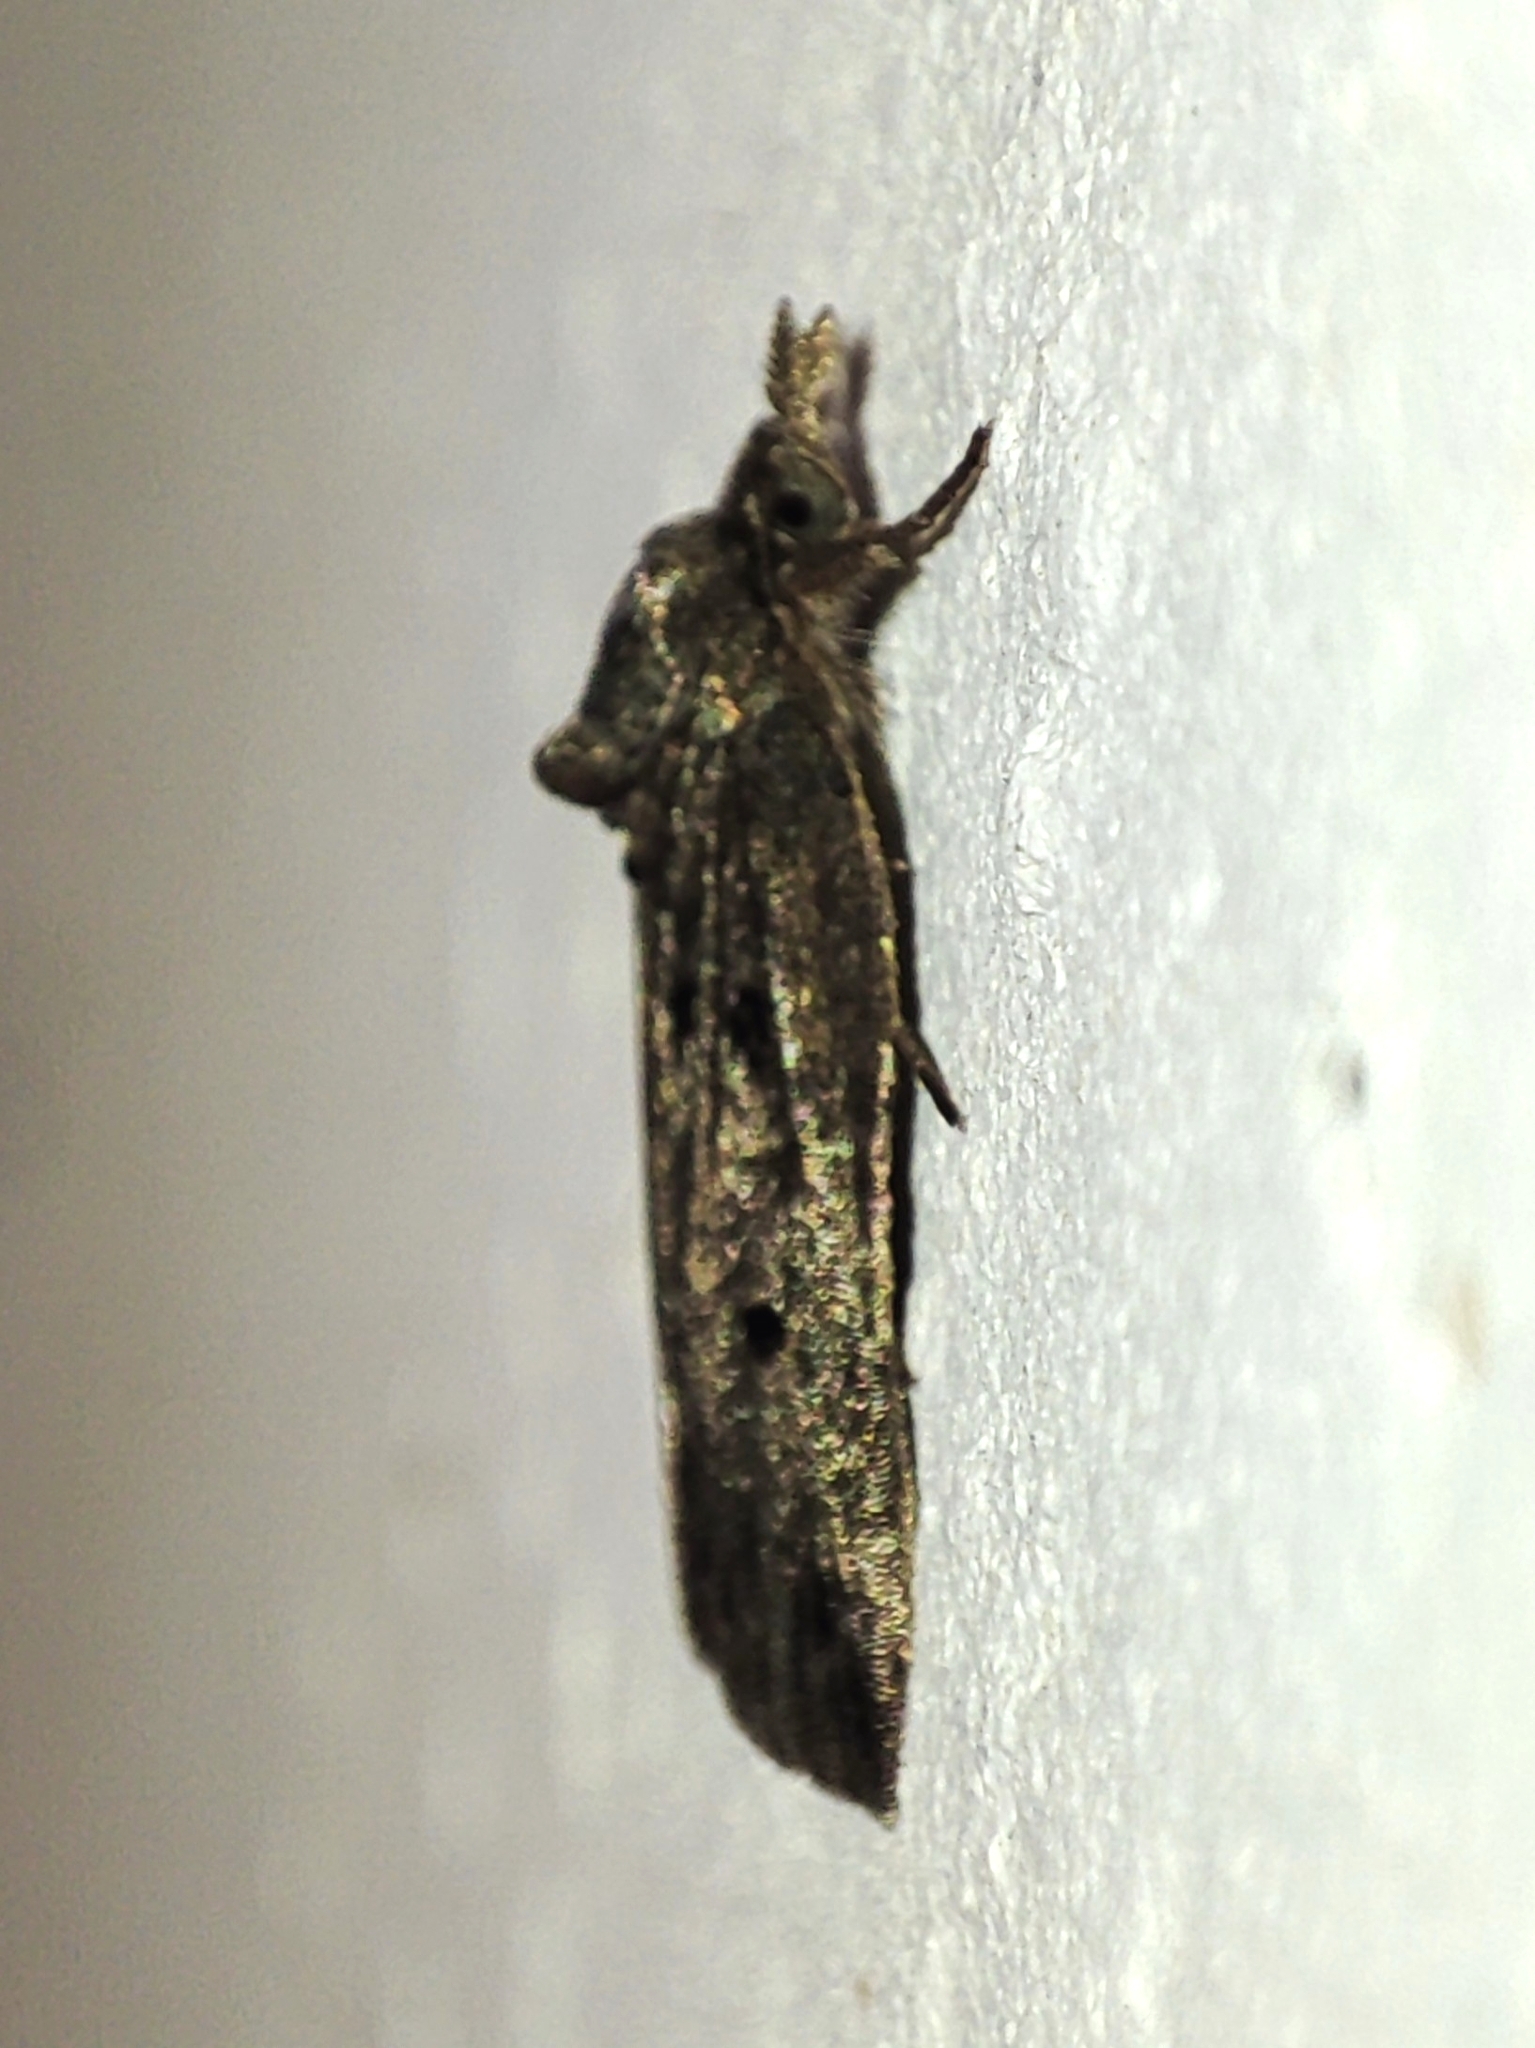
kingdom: Animalia
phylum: Arthropoda
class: Insecta
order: Lepidoptera
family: Nolidae
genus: Nycteola
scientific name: Nycteola revayana
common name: Oak nycteoline
